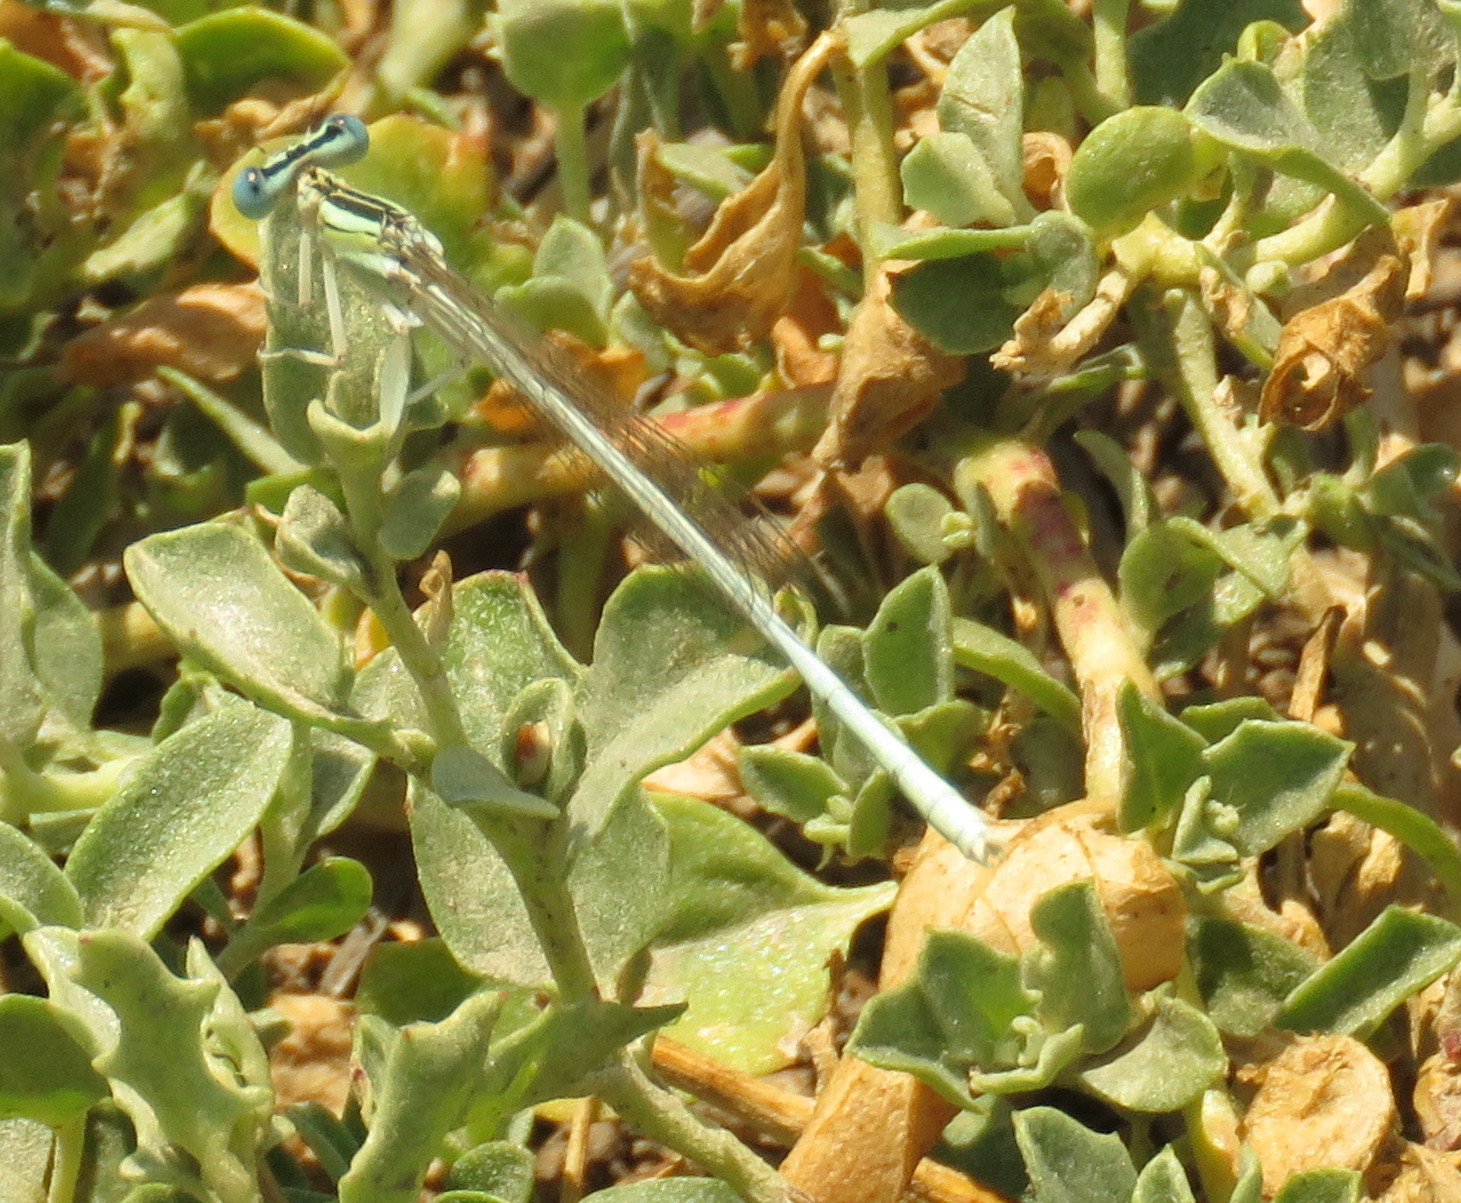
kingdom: Animalia
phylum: Arthropoda
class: Insecta
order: Odonata
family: Platycnemididae
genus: Platycnemis
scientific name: Platycnemis dealbata
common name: Ivory featherleg
